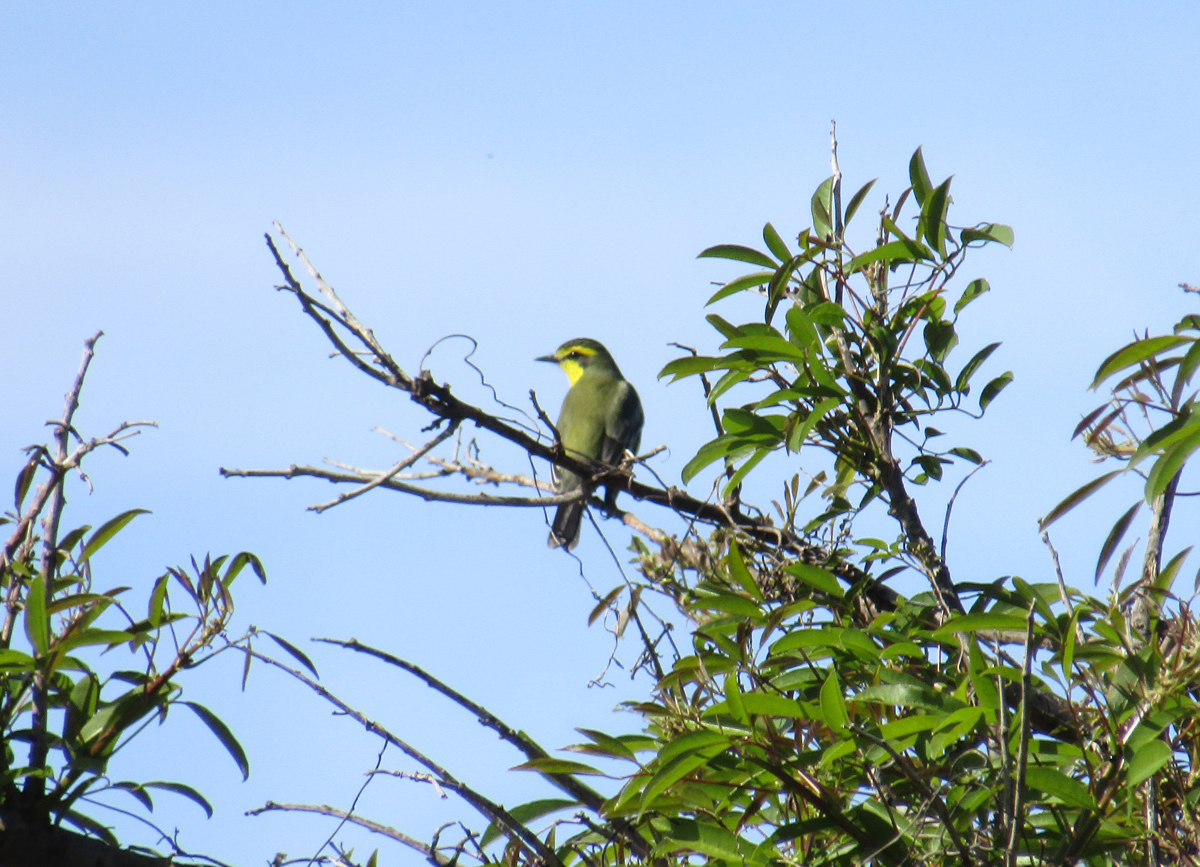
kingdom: Animalia
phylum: Chordata
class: Aves
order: Passeriformes
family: Tyrannidae
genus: Satrapa
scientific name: Satrapa icterophrys
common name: Yellow-browed tyrant
